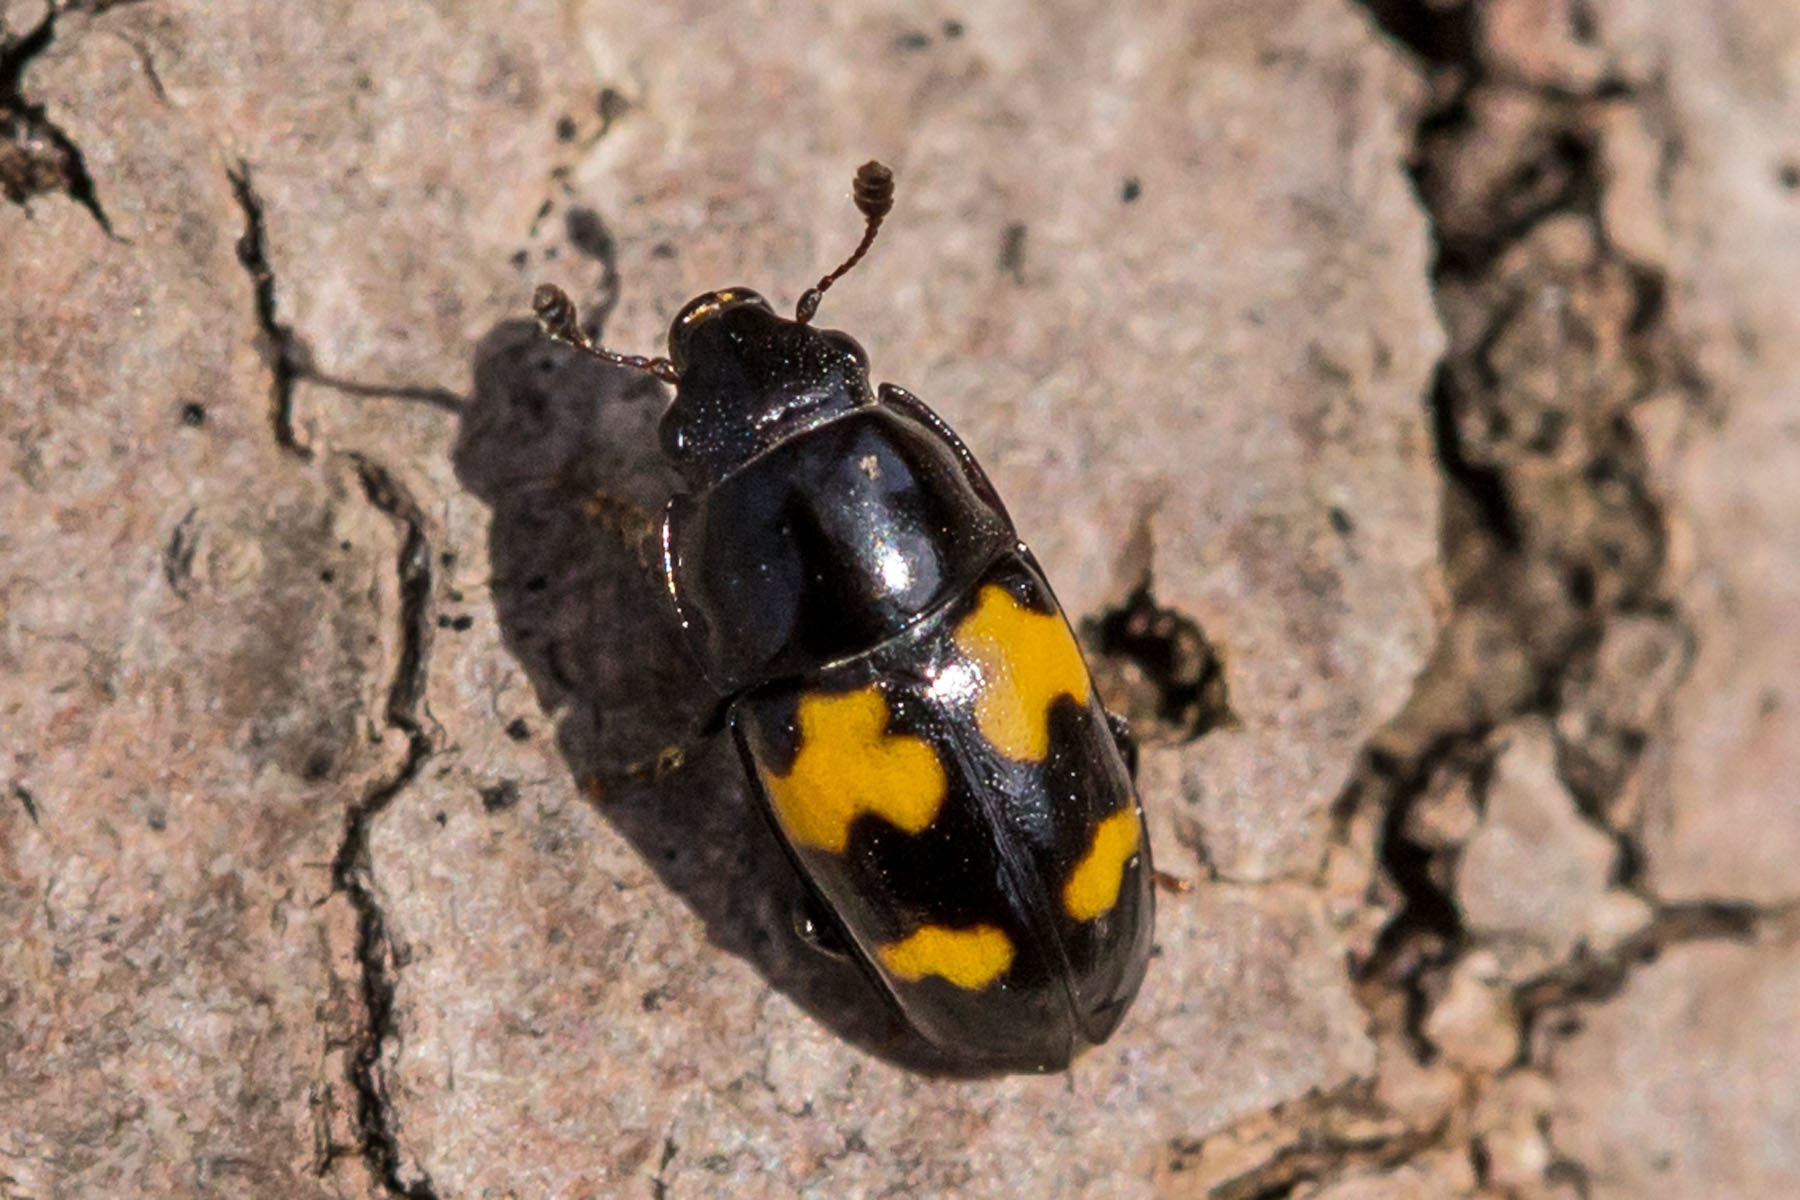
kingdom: Animalia
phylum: Arthropoda
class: Insecta
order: Coleoptera
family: Nitidulidae
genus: Glischrochilus
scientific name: Glischrochilus fasciatus
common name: Picnic beetle
